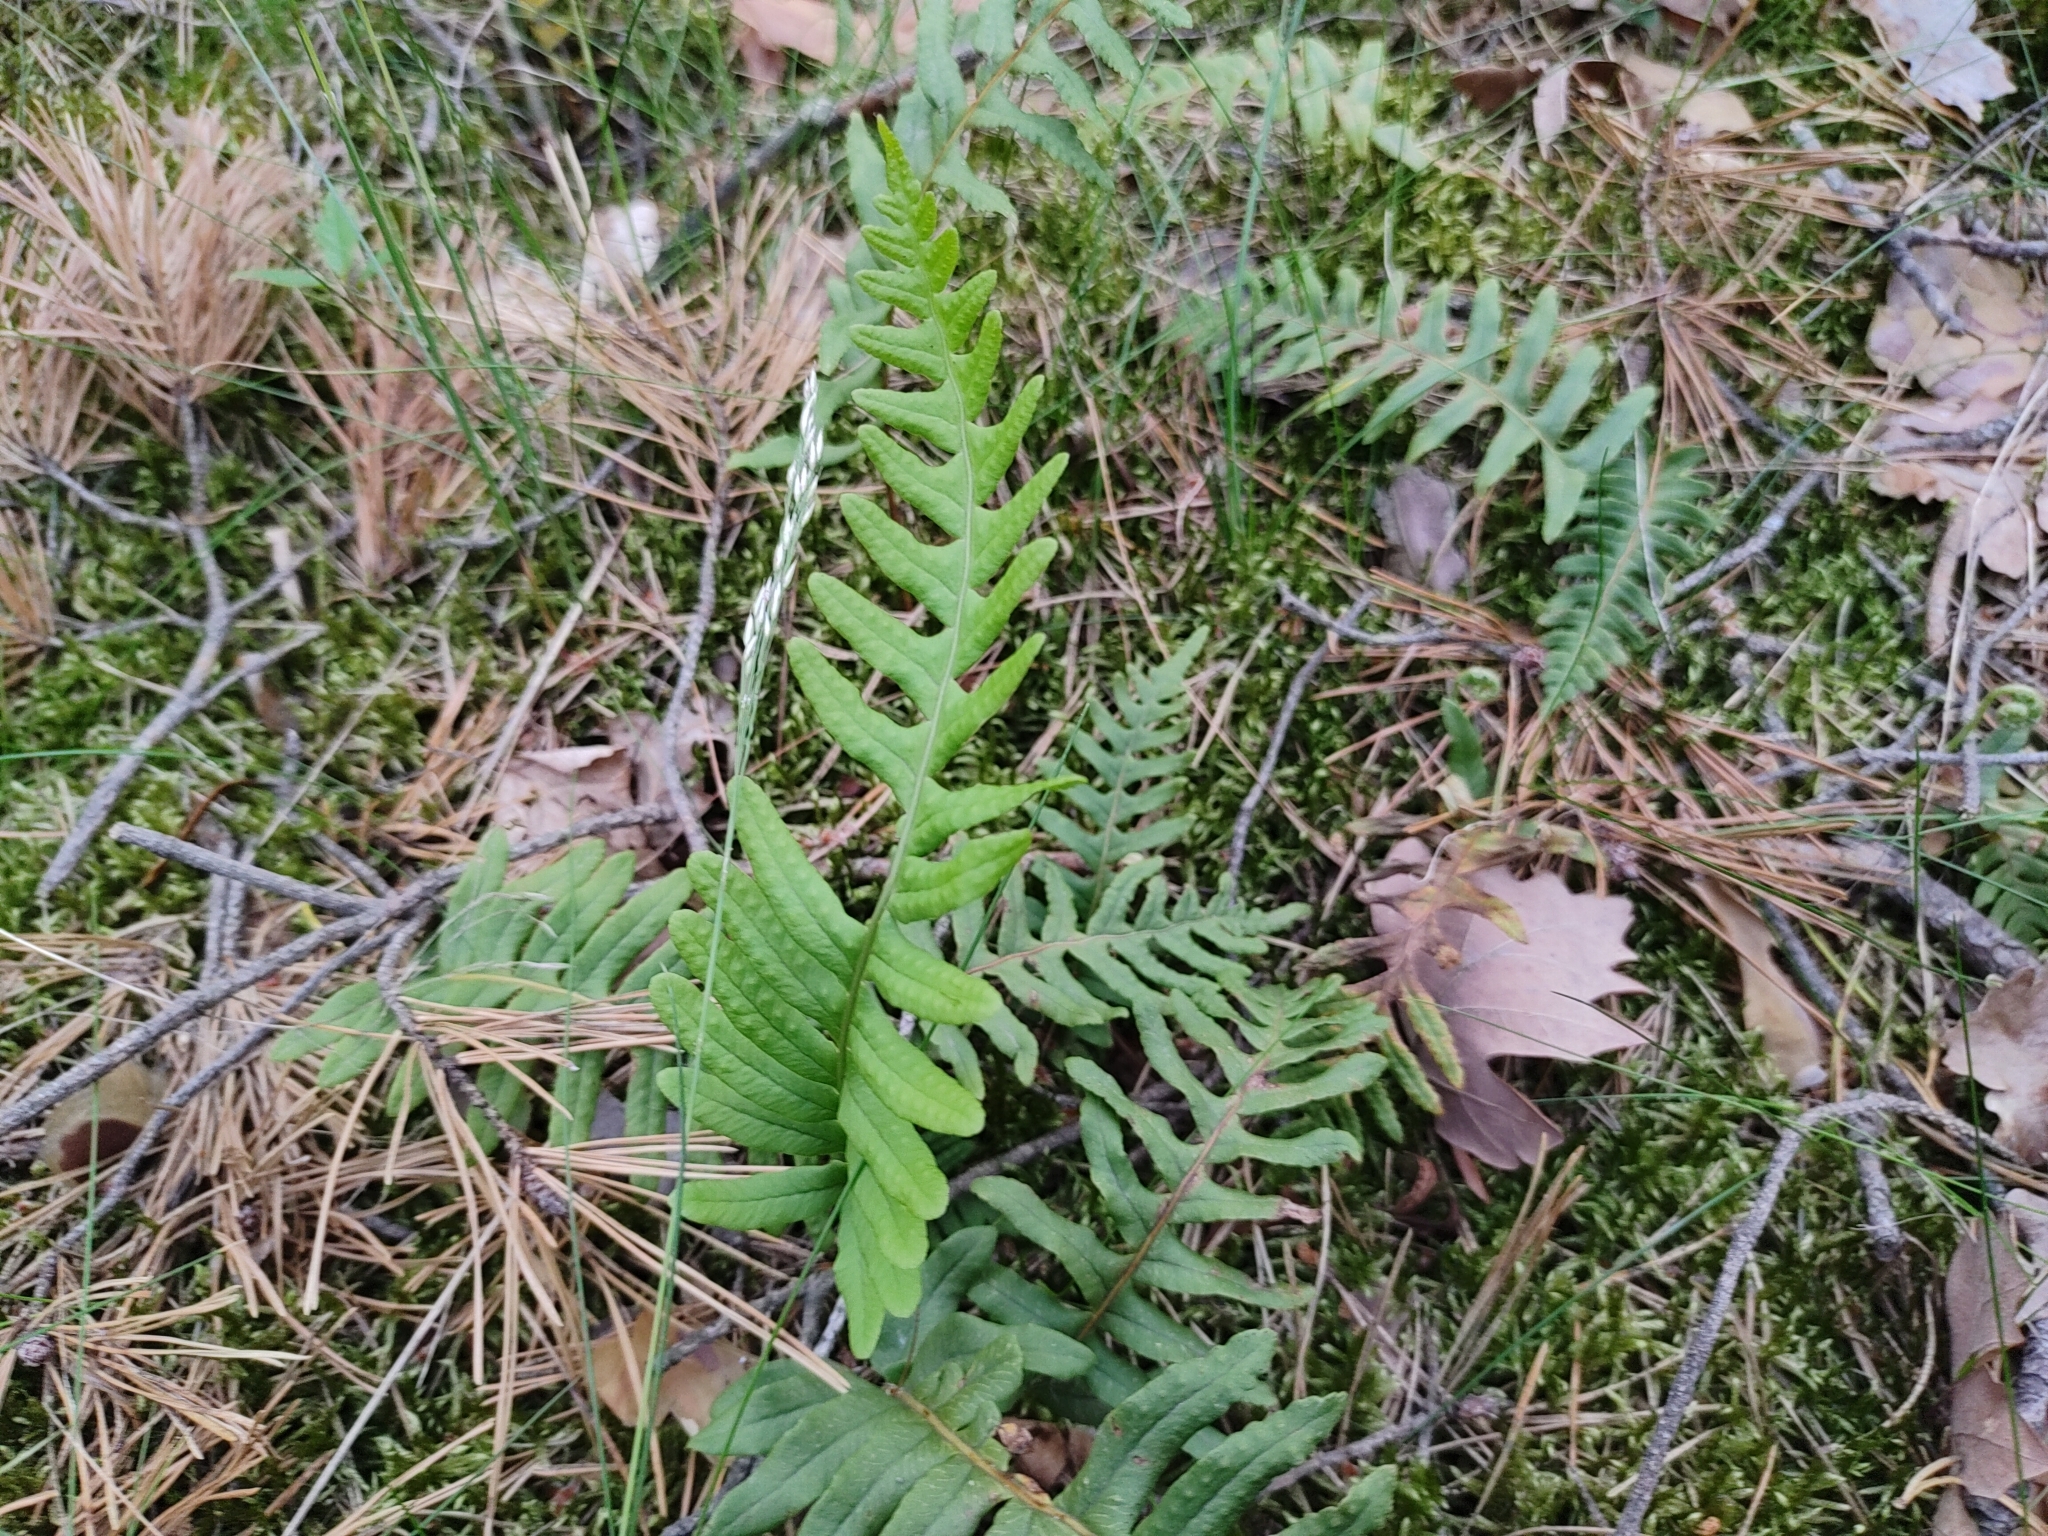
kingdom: Plantae
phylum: Tracheophyta
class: Polypodiopsida
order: Polypodiales
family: Polypodiaceae
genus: Polypodium
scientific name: Polypodium vulgare
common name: Common polypody
